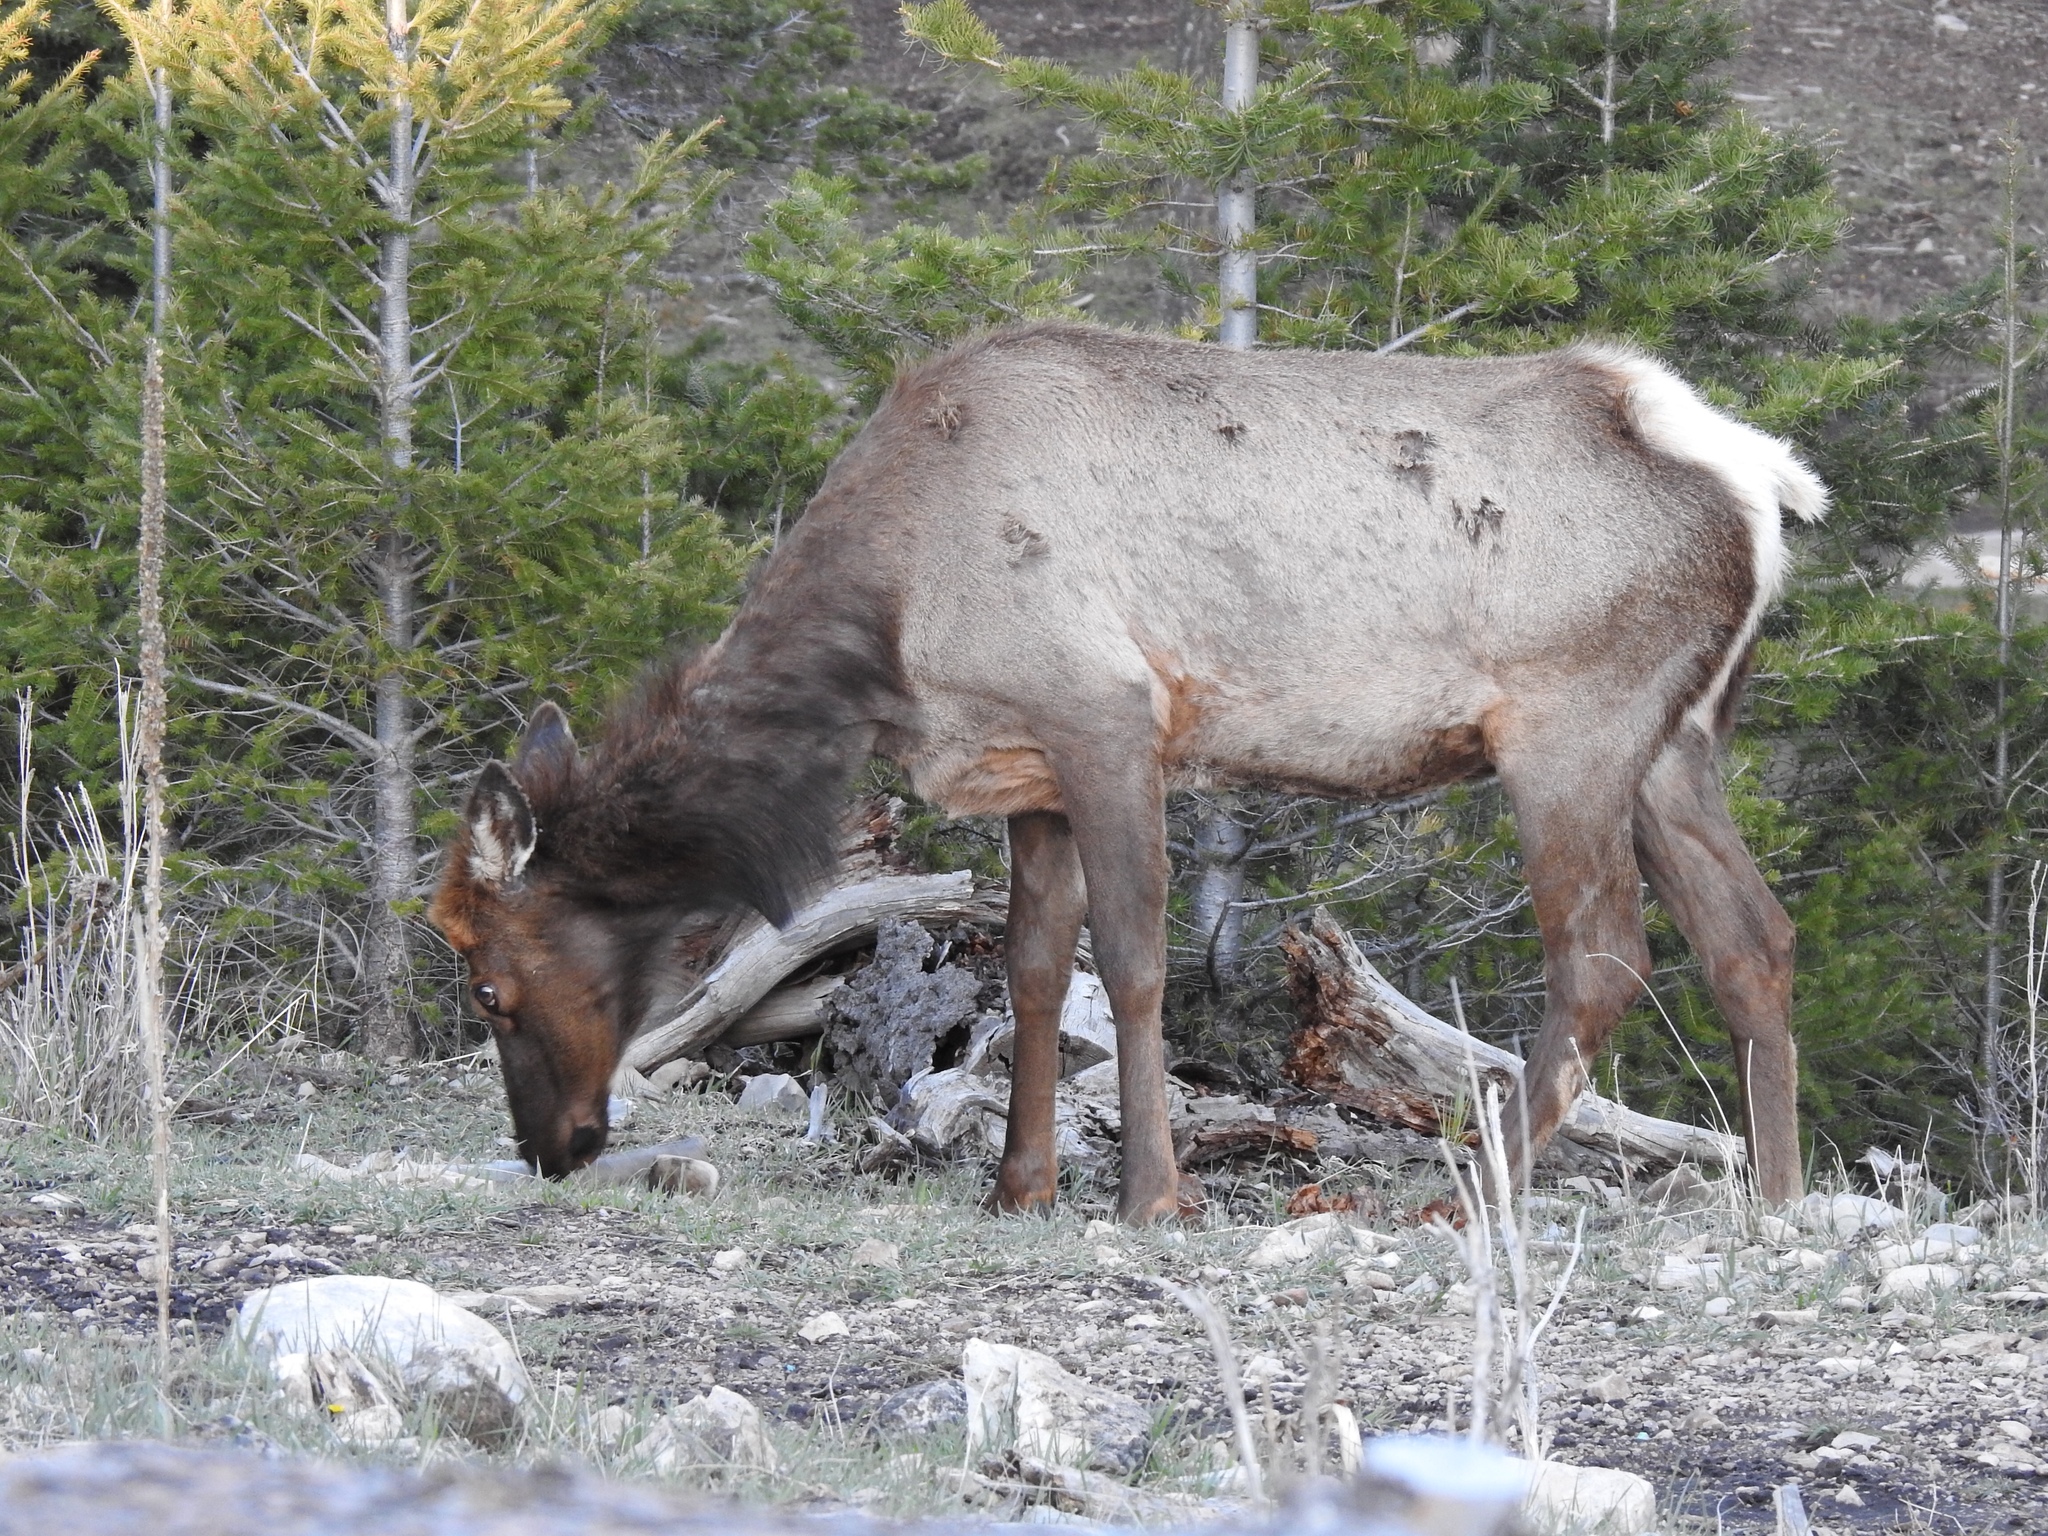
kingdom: Animalia
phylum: Chordata
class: Mammalia
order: Artiodactyla
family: Cervidae
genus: Cervus
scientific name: Cervus elaphus
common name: Red deer
